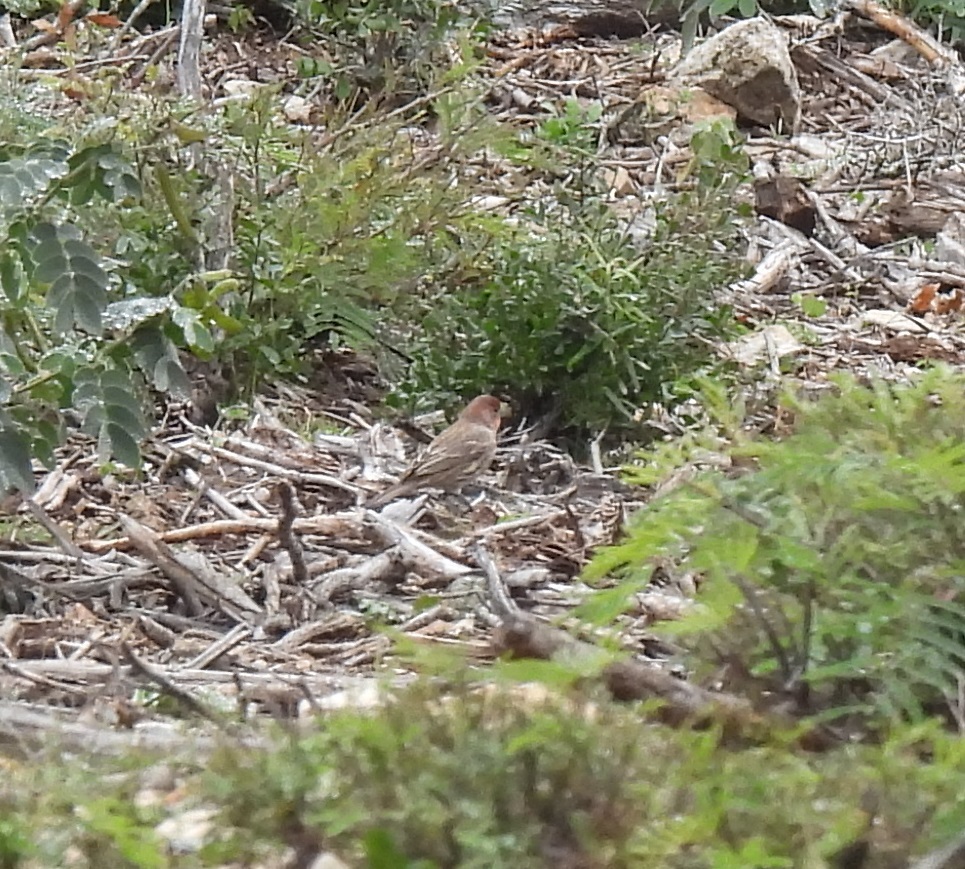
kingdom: Animalia
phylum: Chordata
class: Aves
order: Passeriformes
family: Fringillidae
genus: Haemorhous
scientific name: Haemorhous mexicanus
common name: House finch
